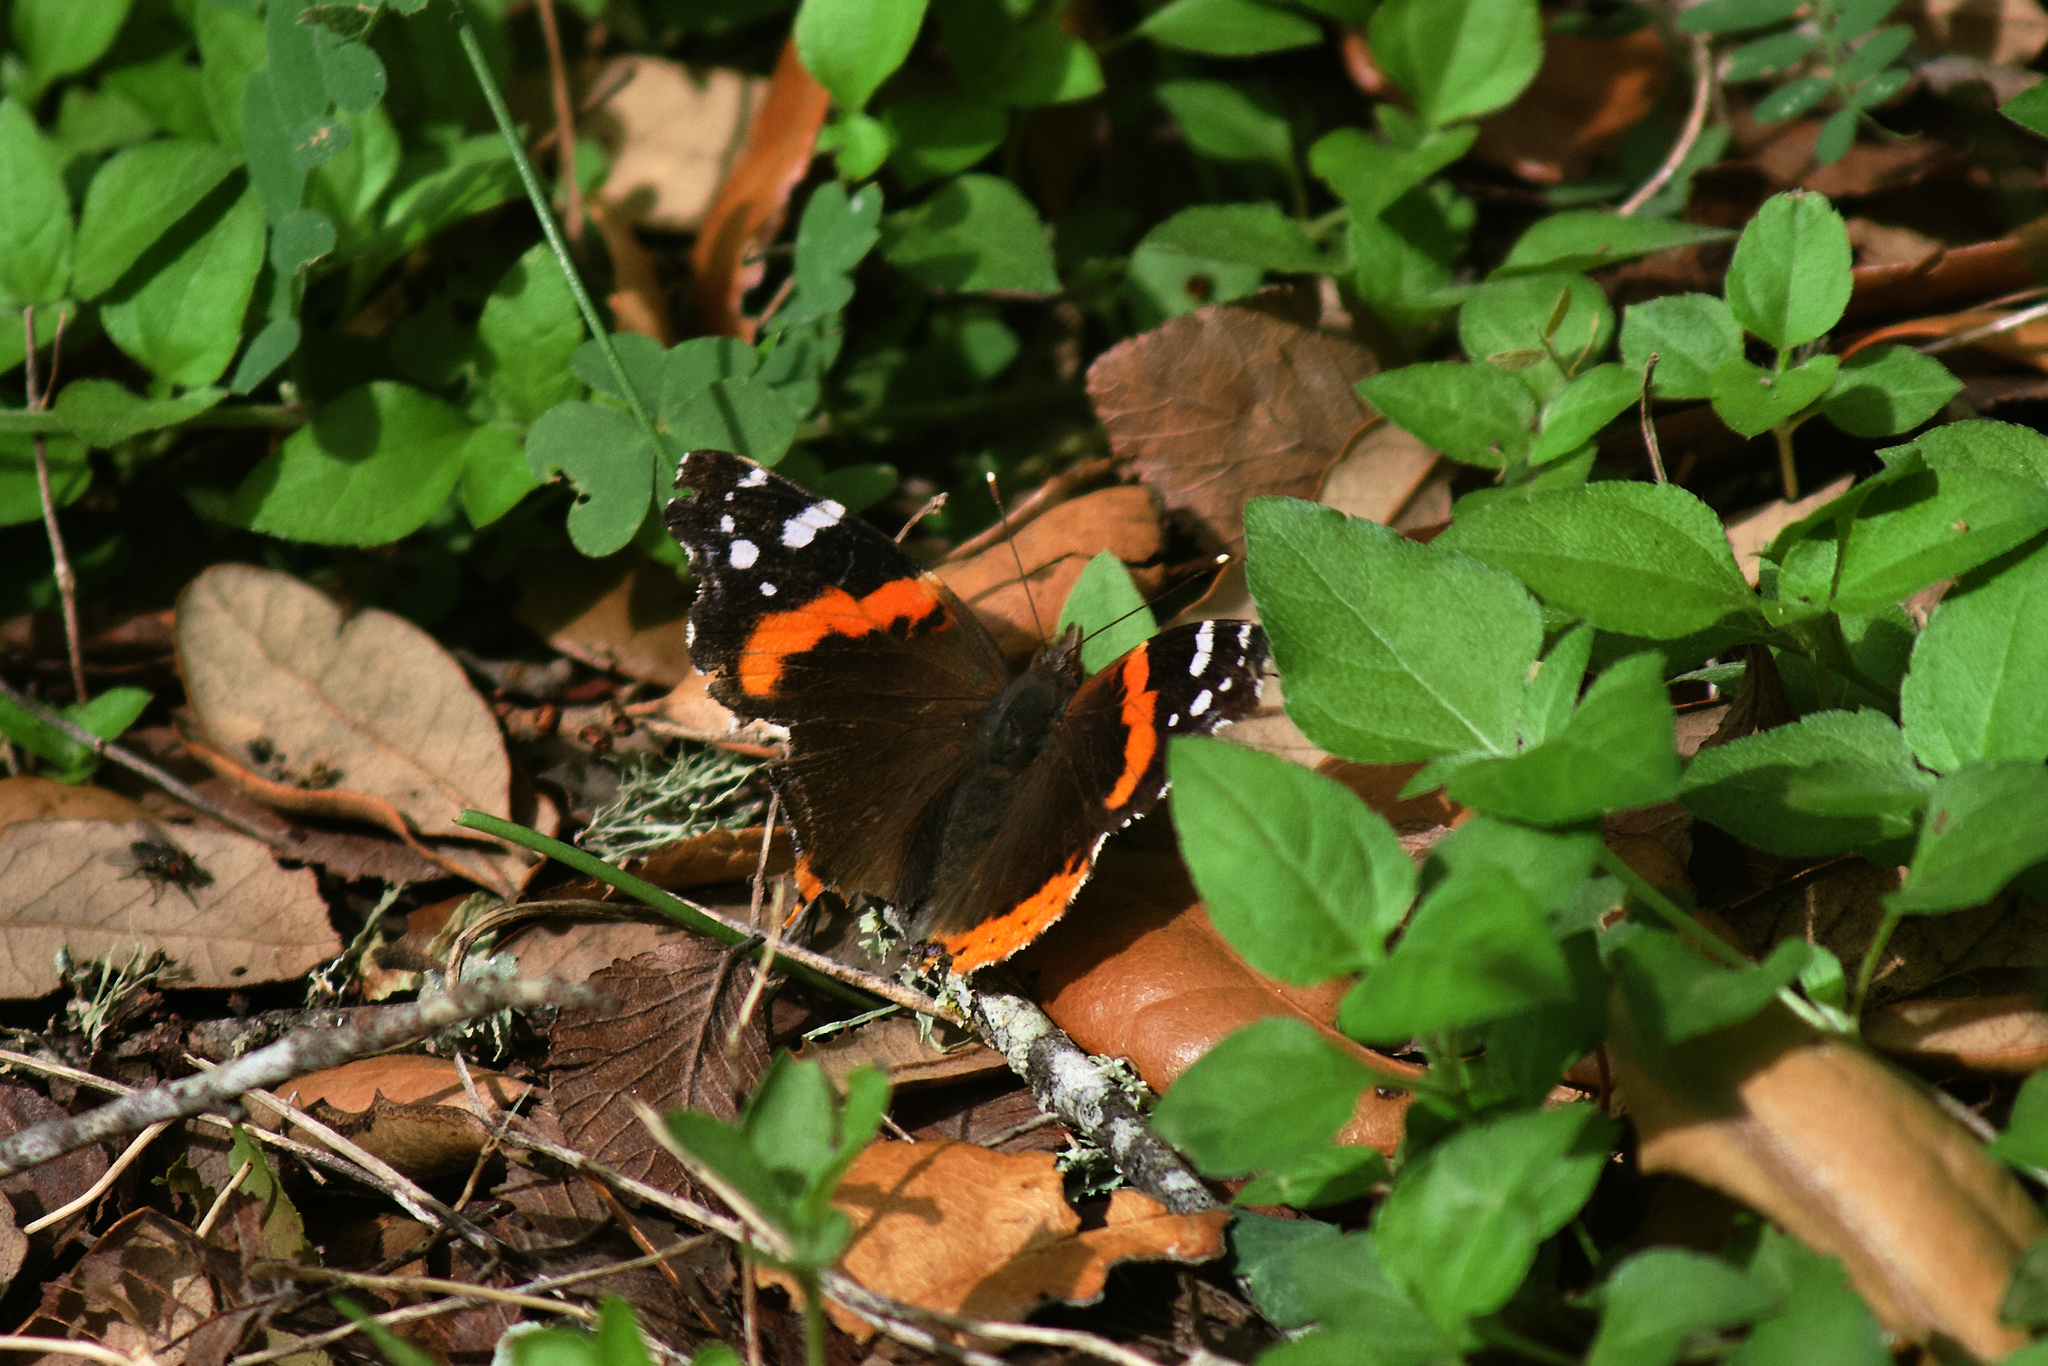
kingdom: Animalia
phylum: Arthropoda
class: Insecta
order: Lepidoptera
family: Nymphalidae
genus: Vanessa
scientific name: Vanessa atalanta
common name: Red admiral
